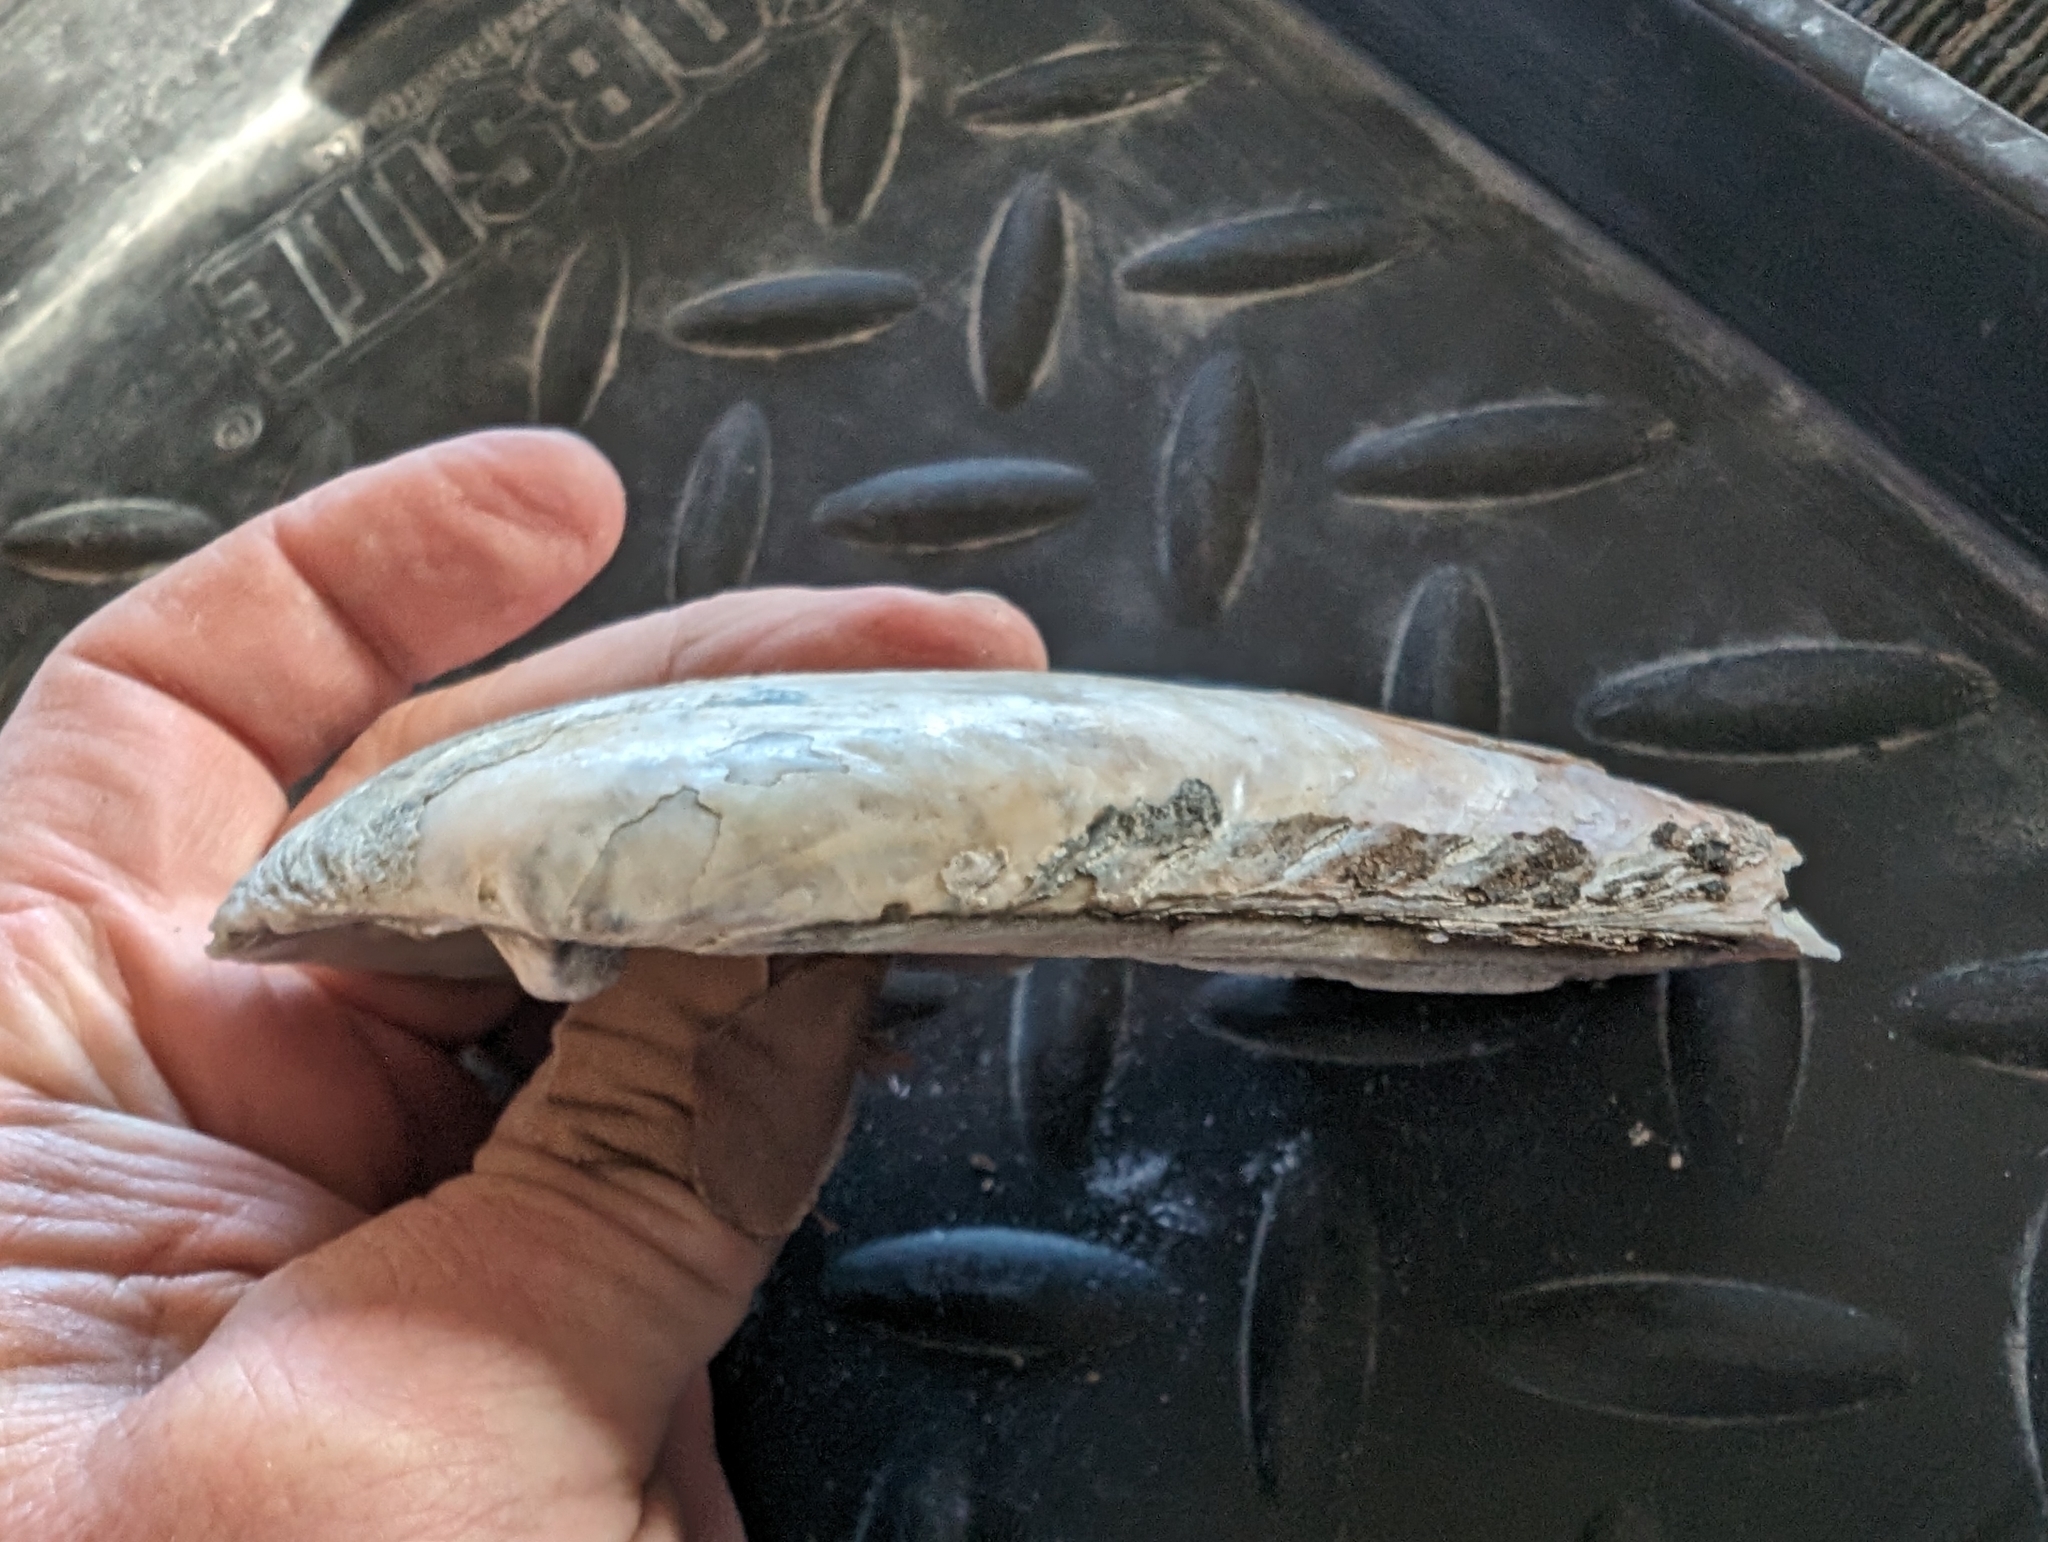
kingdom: Animalia
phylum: Mollusca
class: Bivalvia
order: Unionida
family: Unionidae
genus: Ligumia
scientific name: Ligumia recta
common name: Black sandshell
